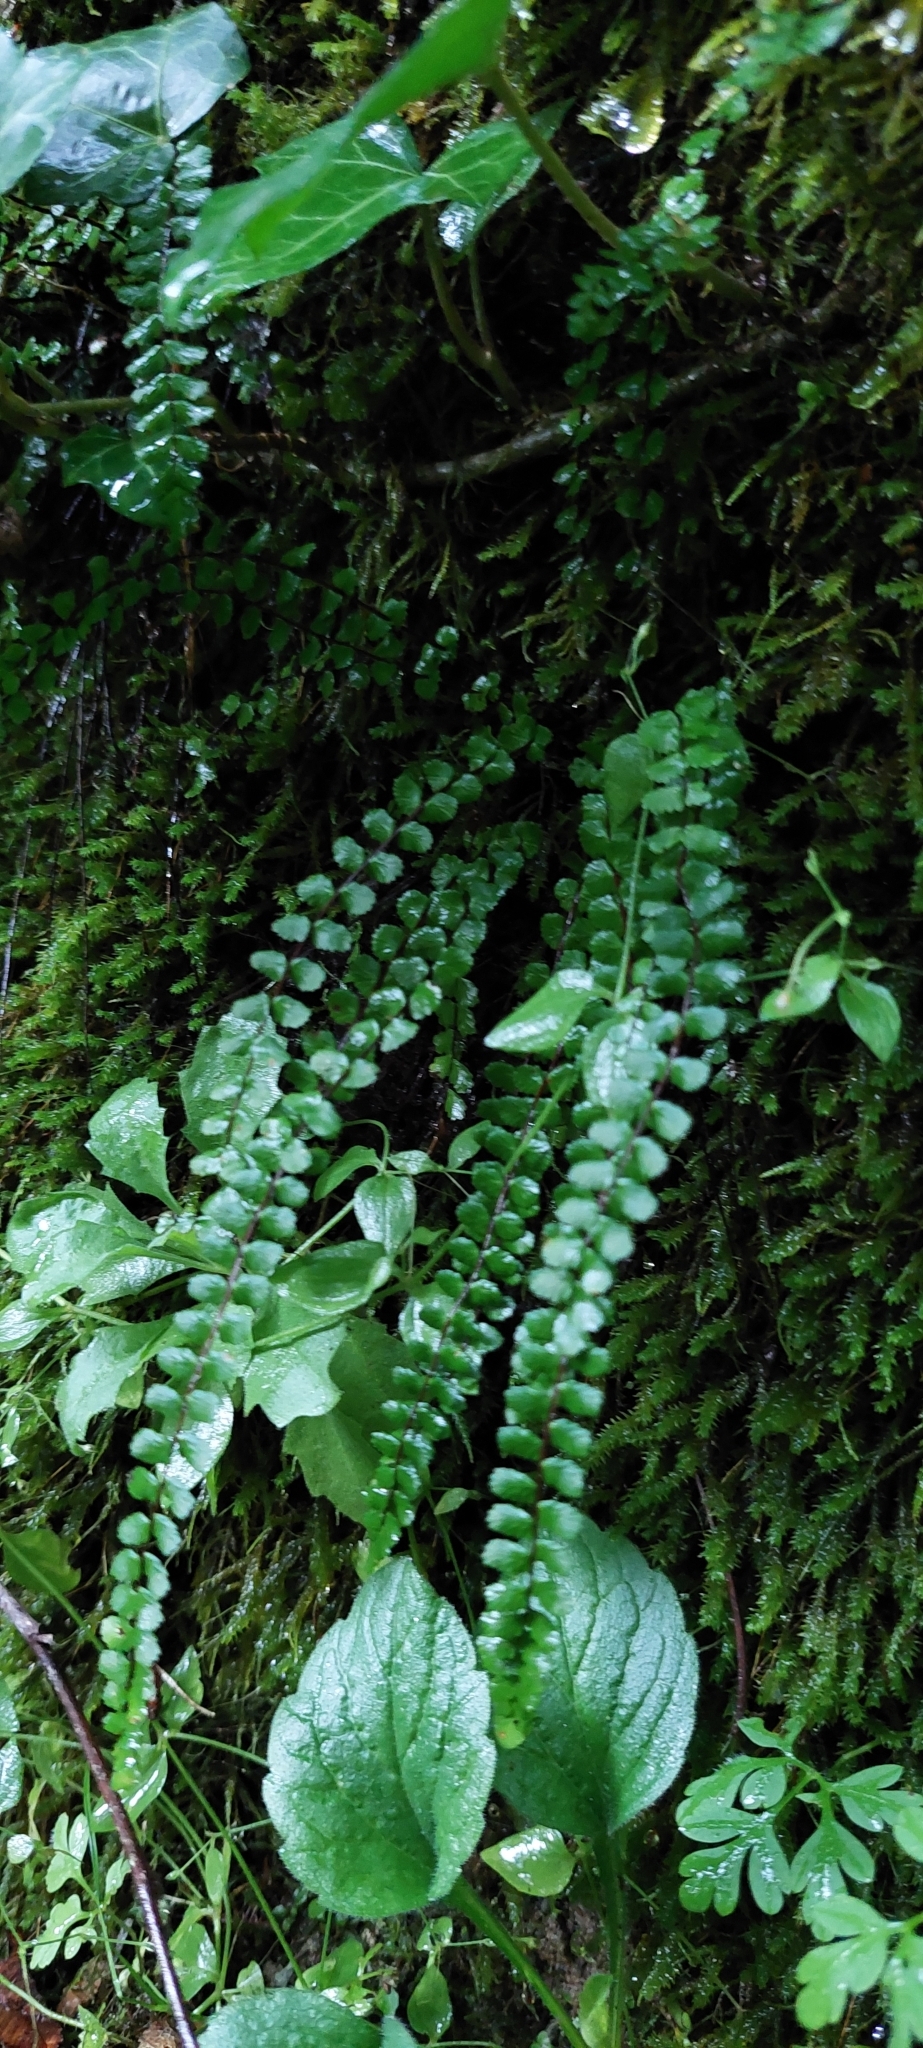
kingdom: Plantae
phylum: Tracheophyta
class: Polypodiopsida
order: Polypodiales
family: Aspleniaceae
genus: Asplenium
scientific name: Asplenium trichomanes
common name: Maidenhair spleenwort
